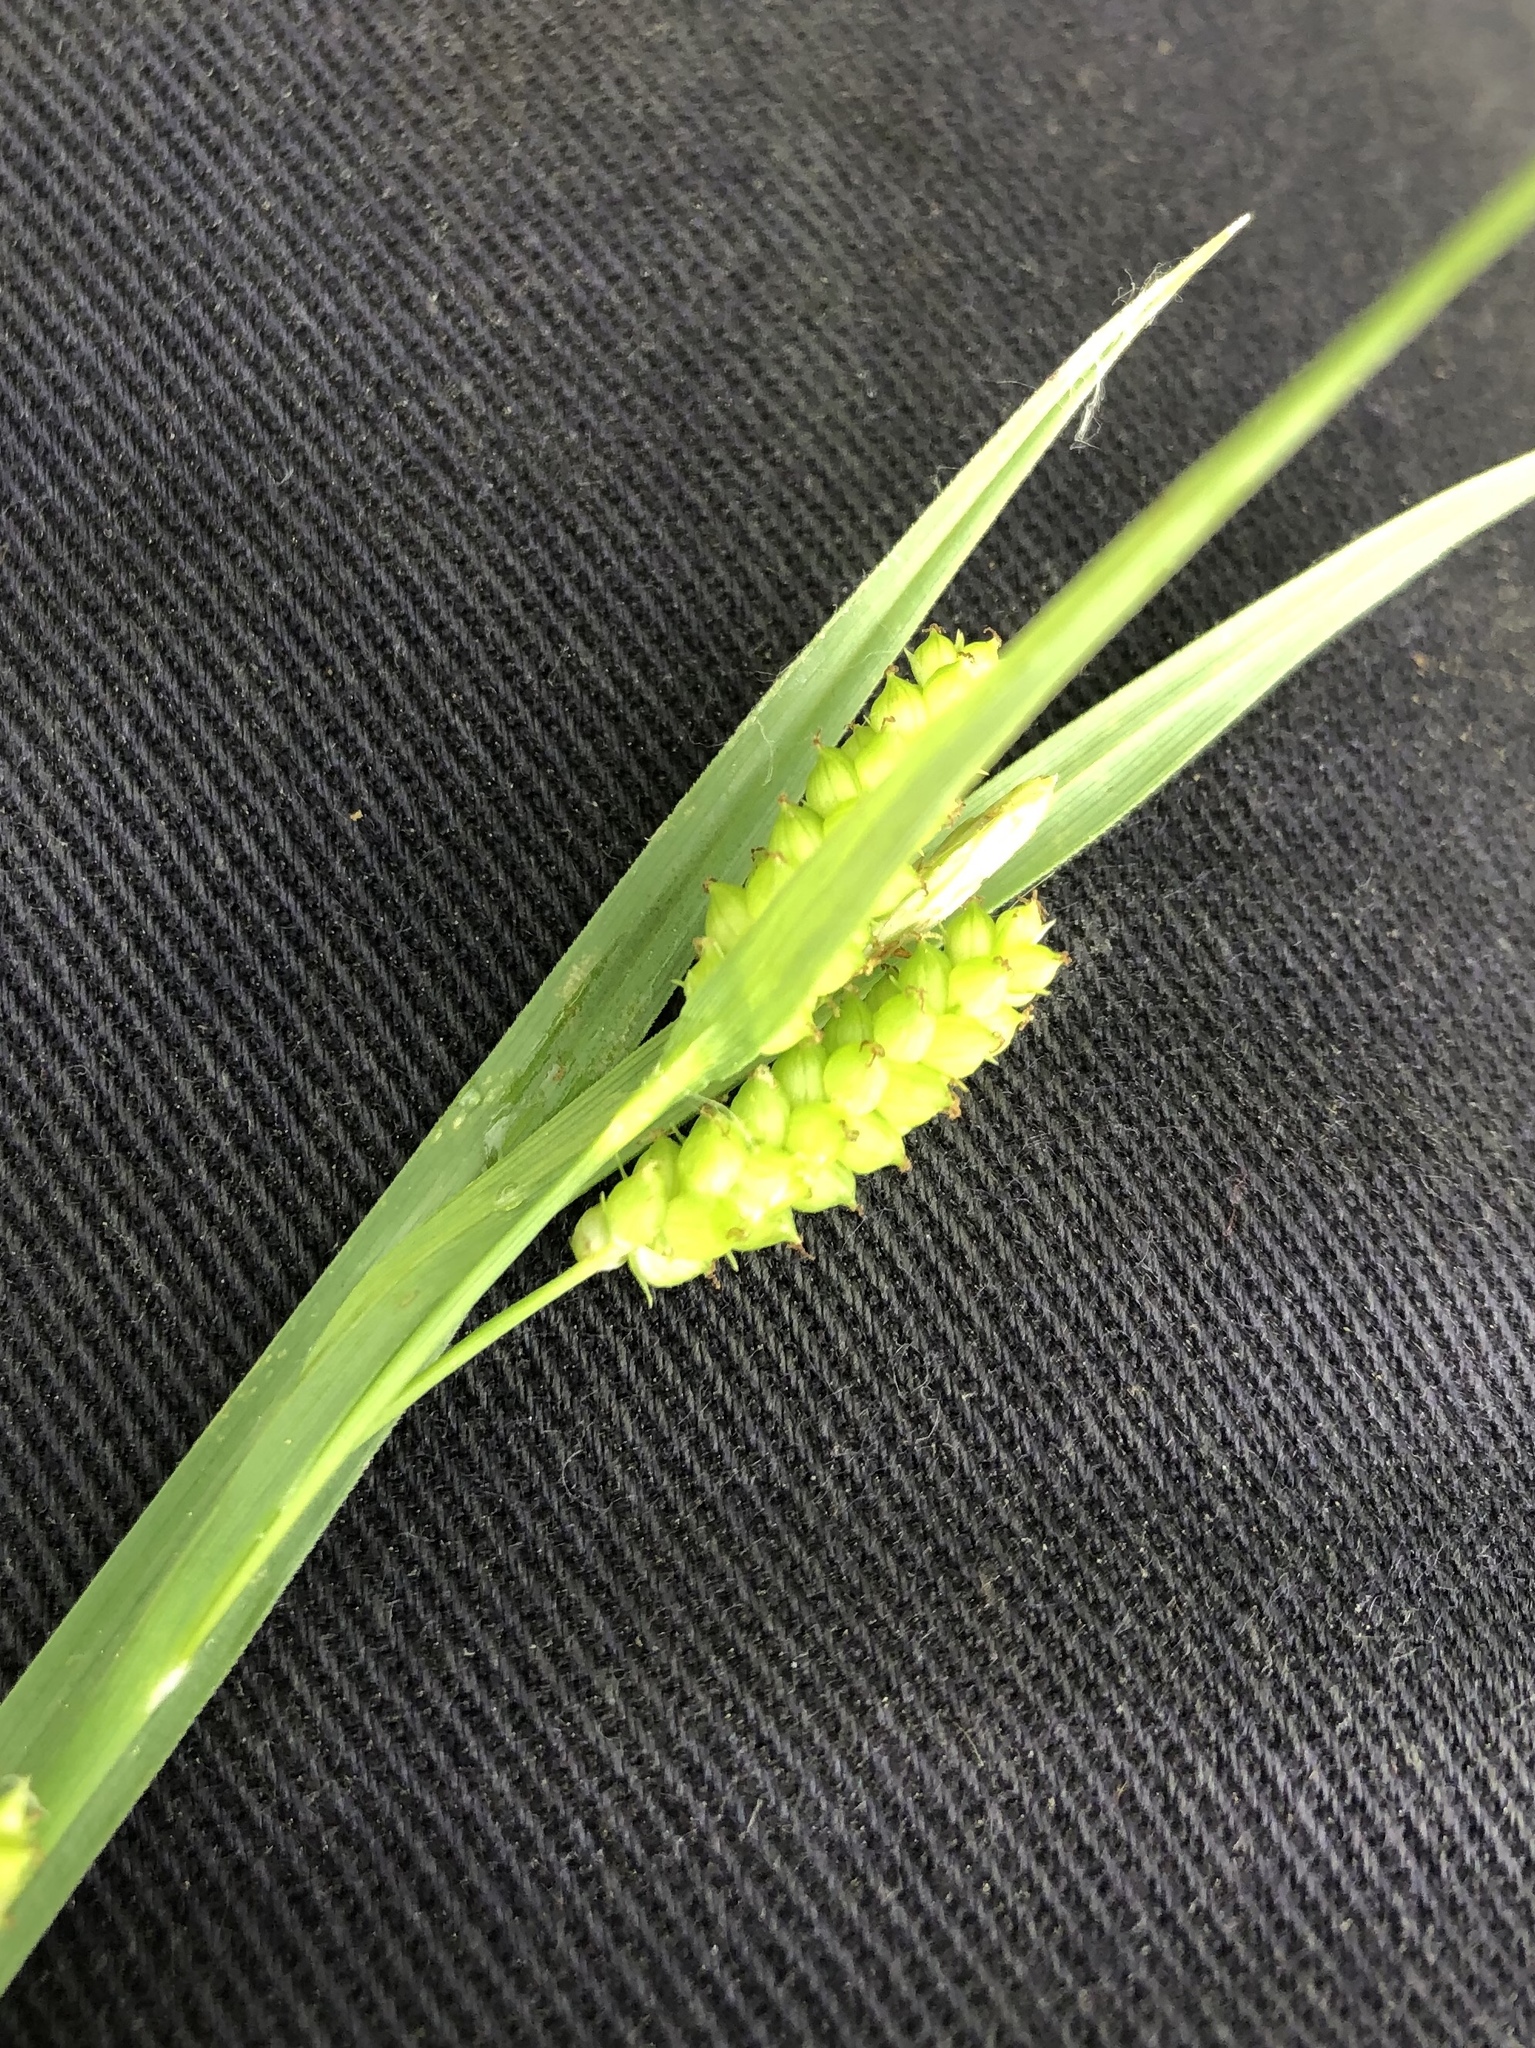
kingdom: Plantae
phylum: Tracheophyta
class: Liliopsida
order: Poales
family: Cyperaceae
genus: Carex
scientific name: Carex granularis
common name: Granular sedge
